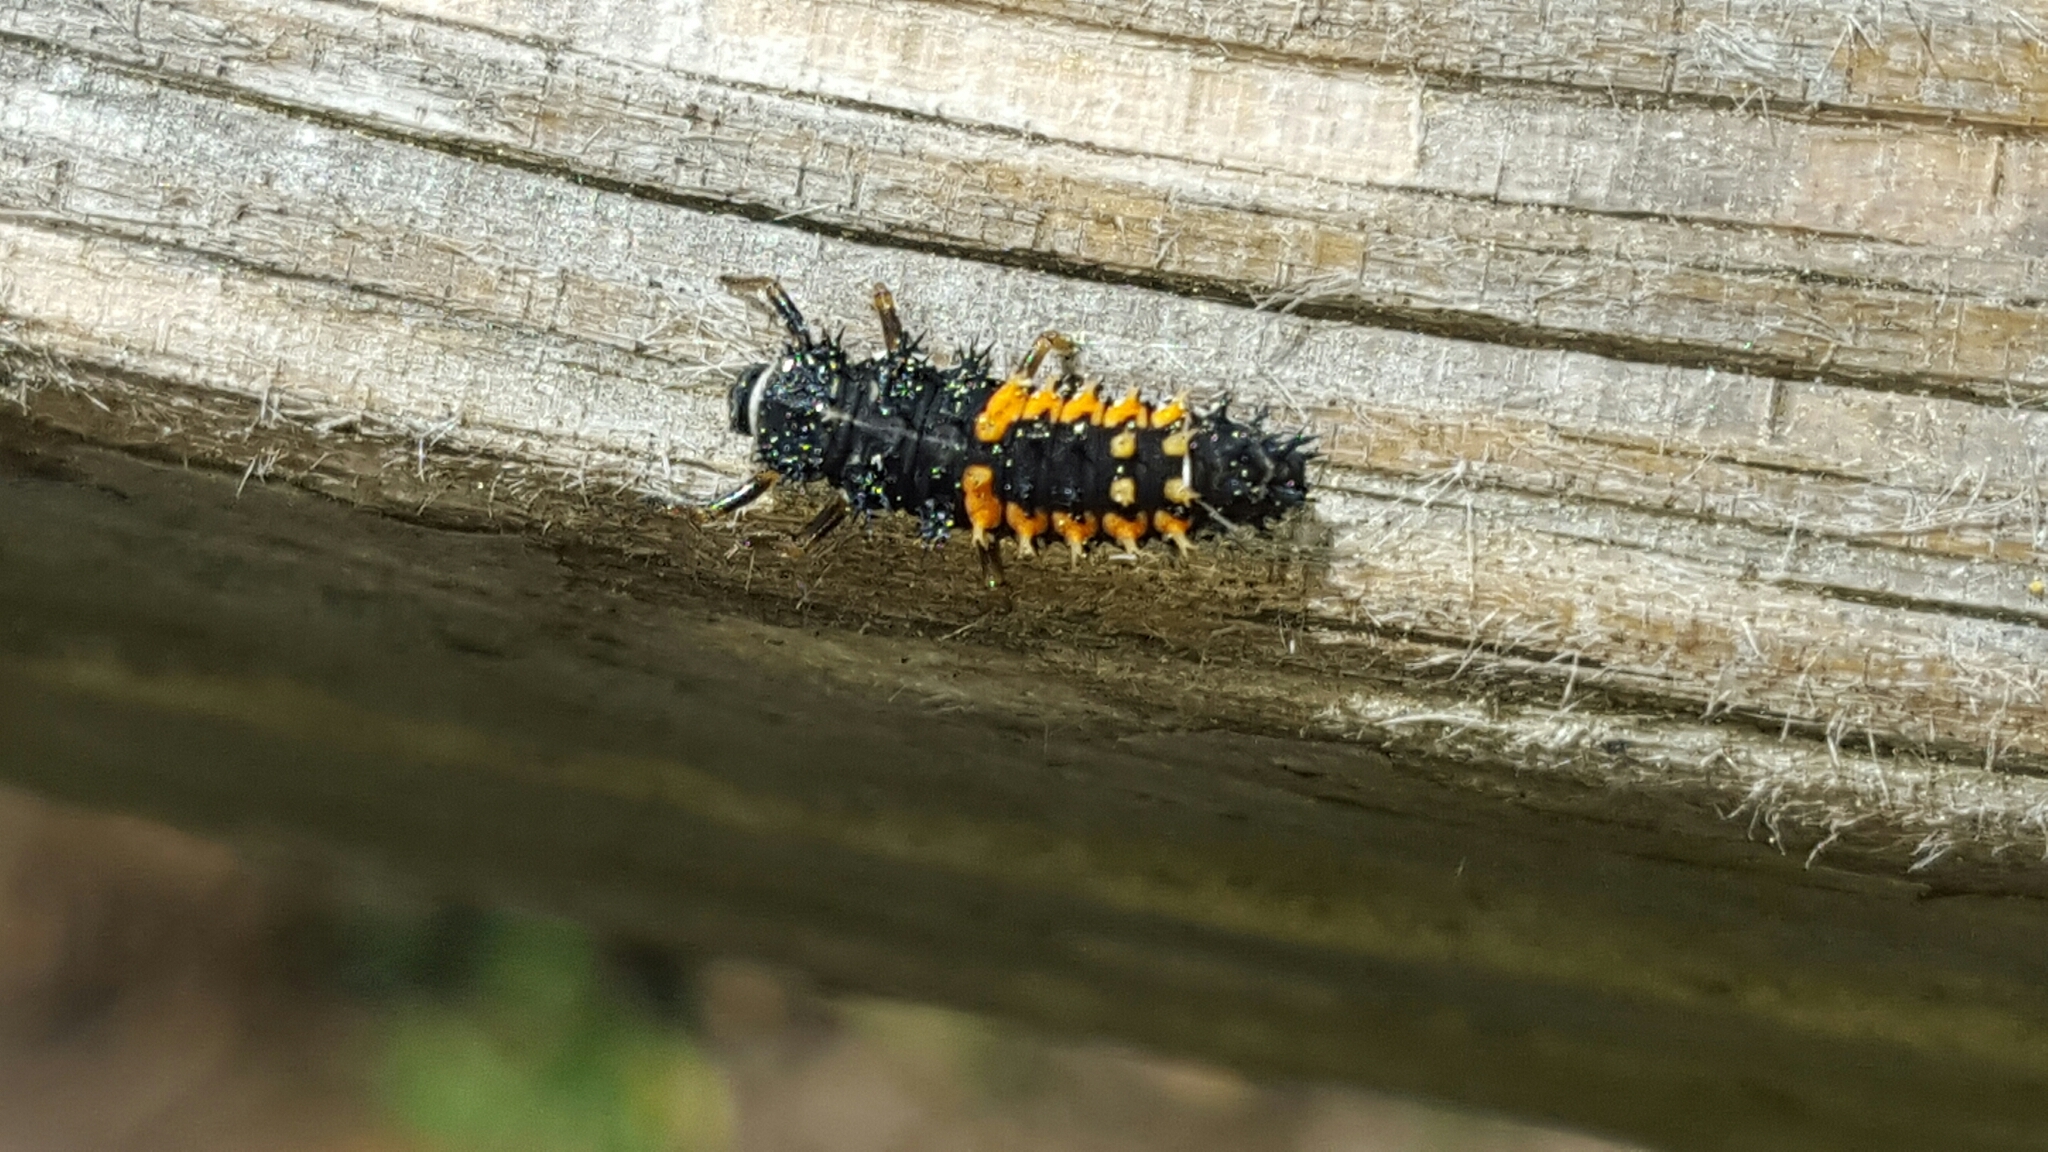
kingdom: Animalia
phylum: Arthropoda
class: Insecta
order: Coleoptera
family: Coccinellidae
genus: Harmonia
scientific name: Harmonia axyridis
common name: Harlequin ladybird
